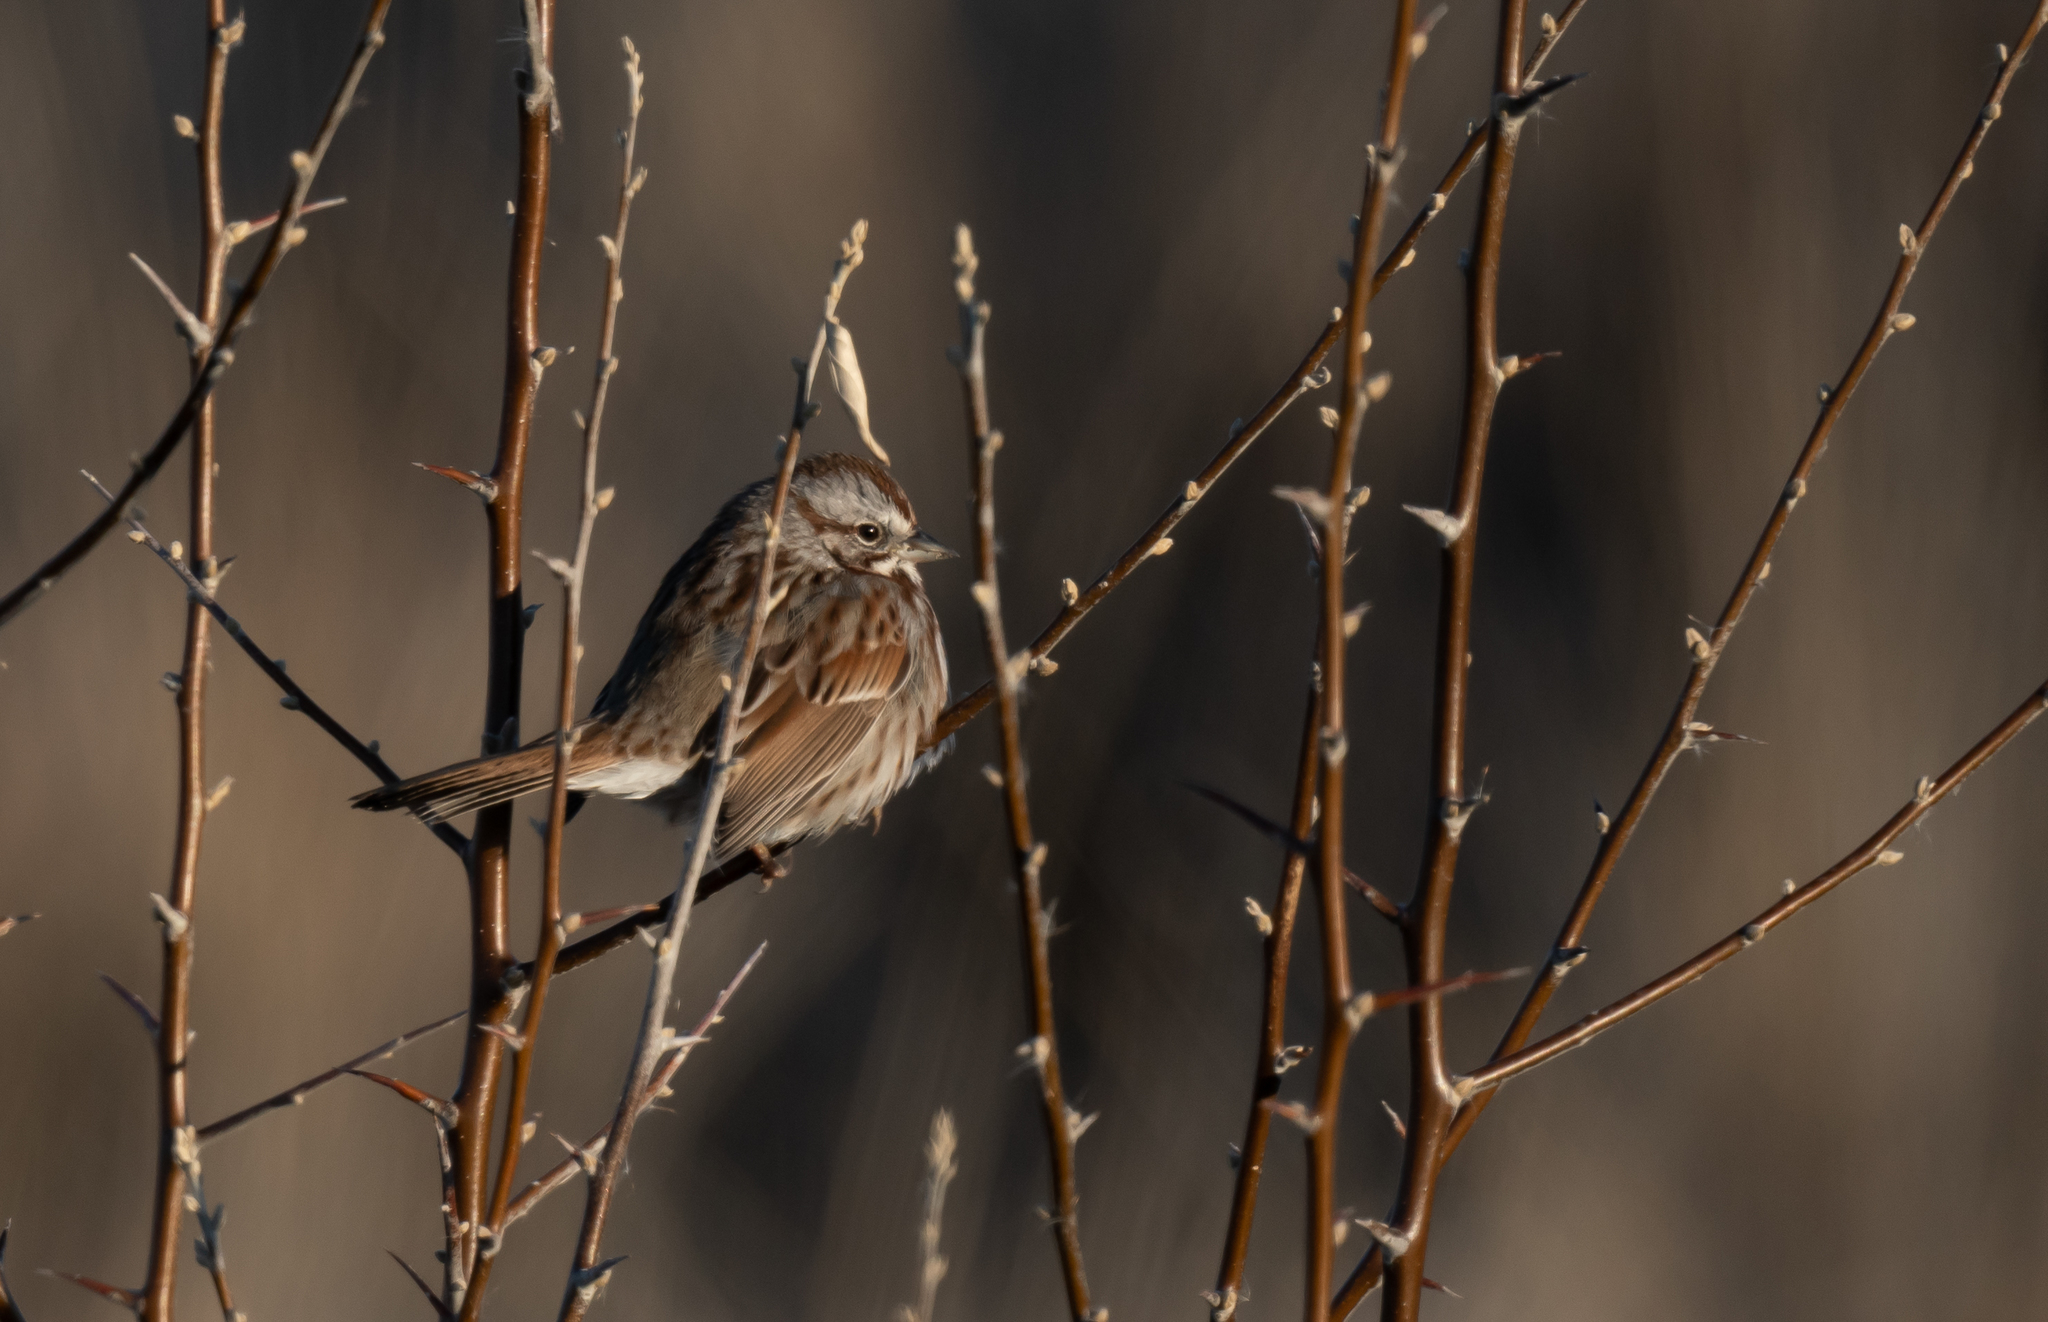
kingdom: Animalia
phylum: Chordata
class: Aves
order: Passeriformes
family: Passerellidae
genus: Melospiza
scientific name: Melospiza melodia
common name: Song sparrow
